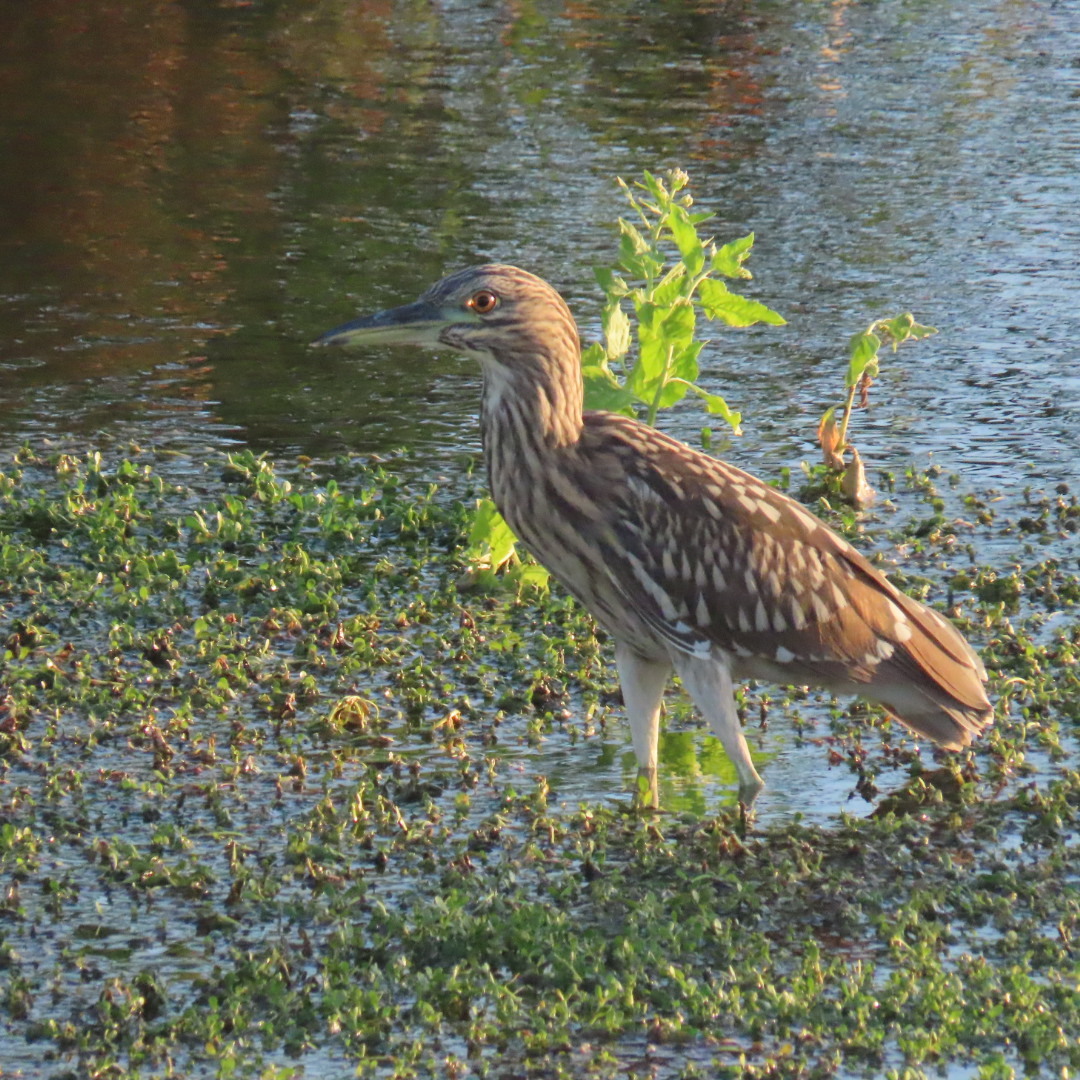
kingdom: Animalia
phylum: Chordata
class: Aves
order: Pelecaniformes
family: Ardeidae
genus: Nycticorax
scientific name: Nycticorax nycticorax
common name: Black-crowned night heron
